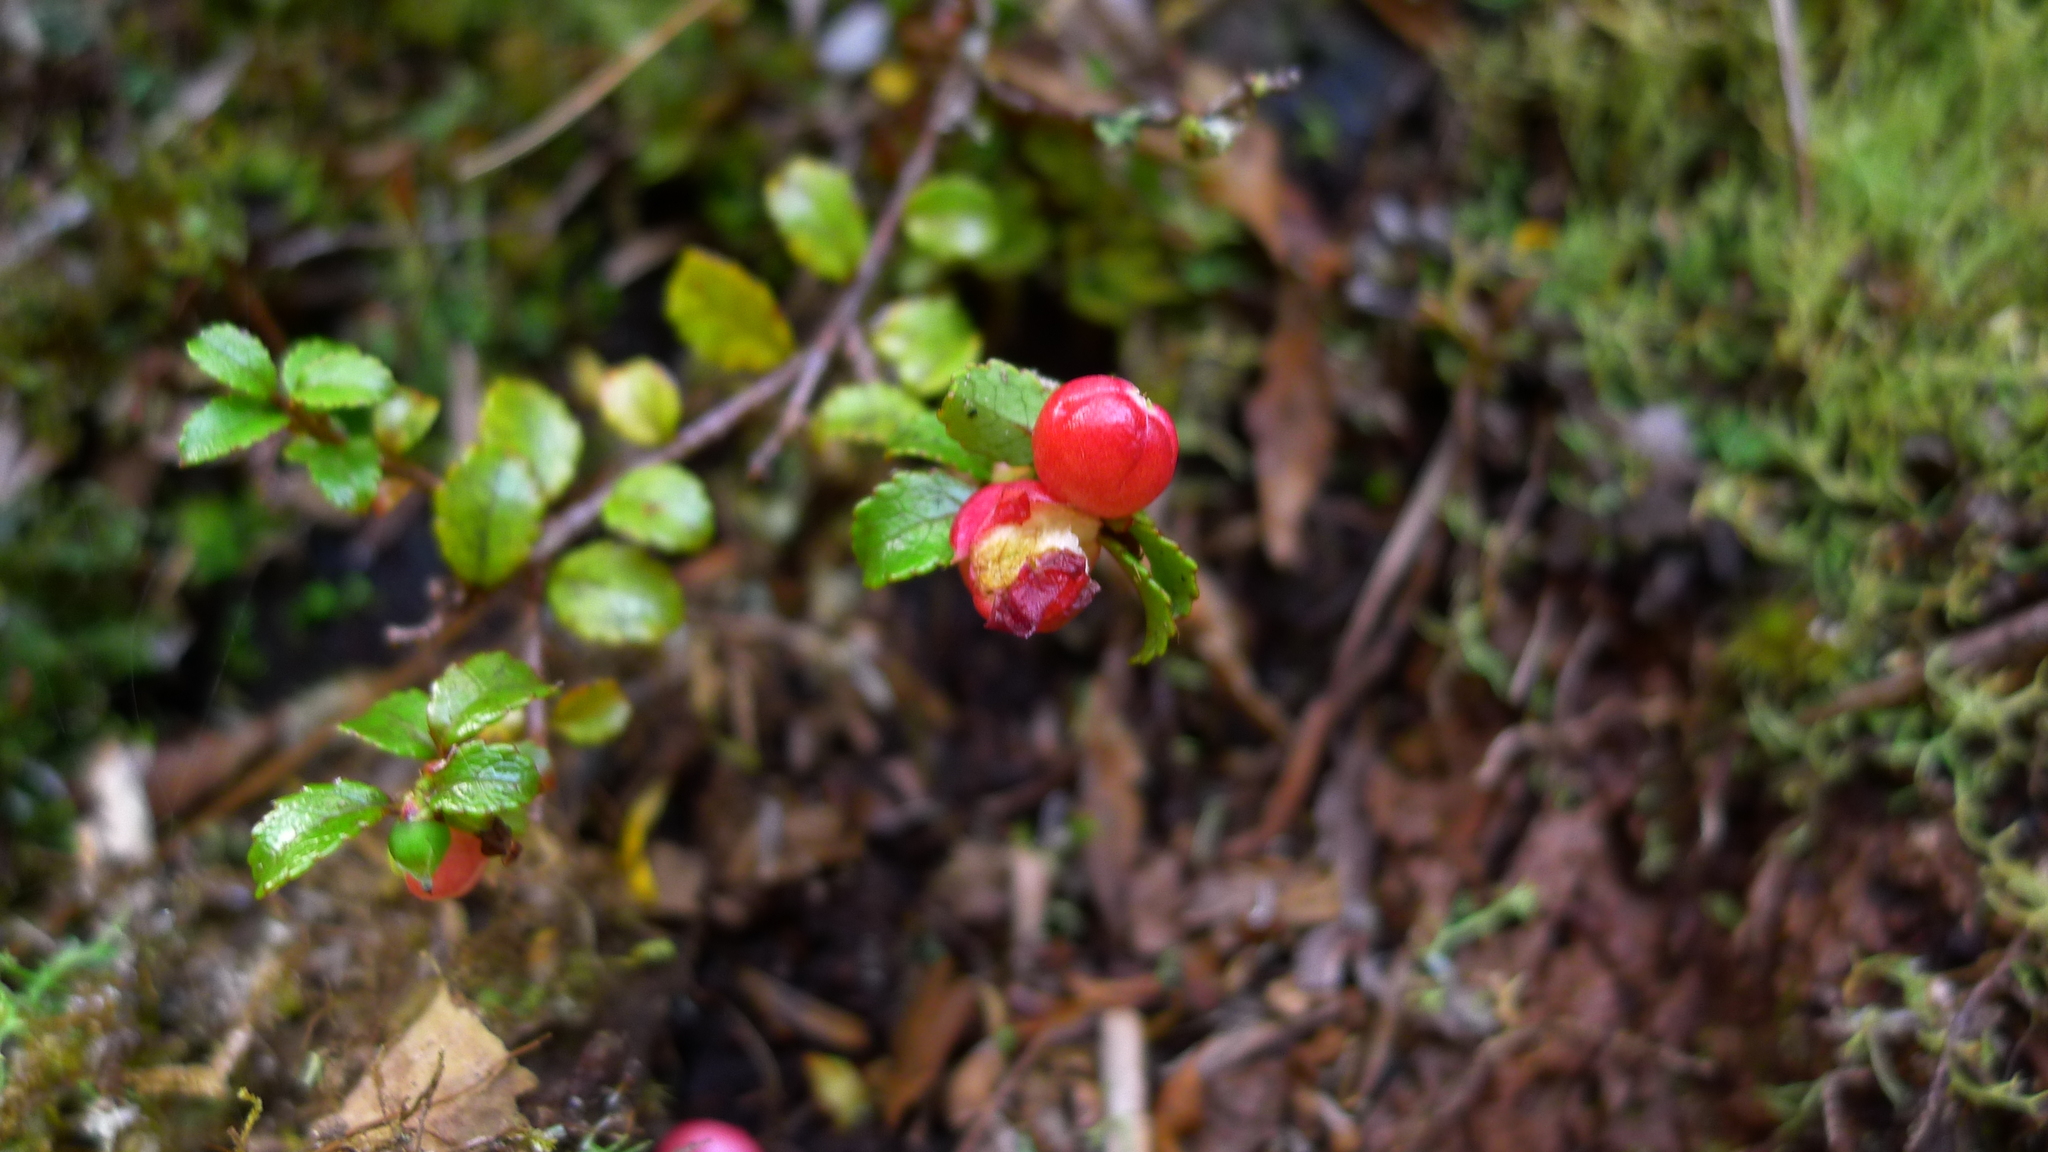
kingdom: Plantae
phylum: Tracheophyta
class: Magnoliopsida
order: Ericales
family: Ericaceae
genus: Gaultheria
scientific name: Gaultheria antipoda
